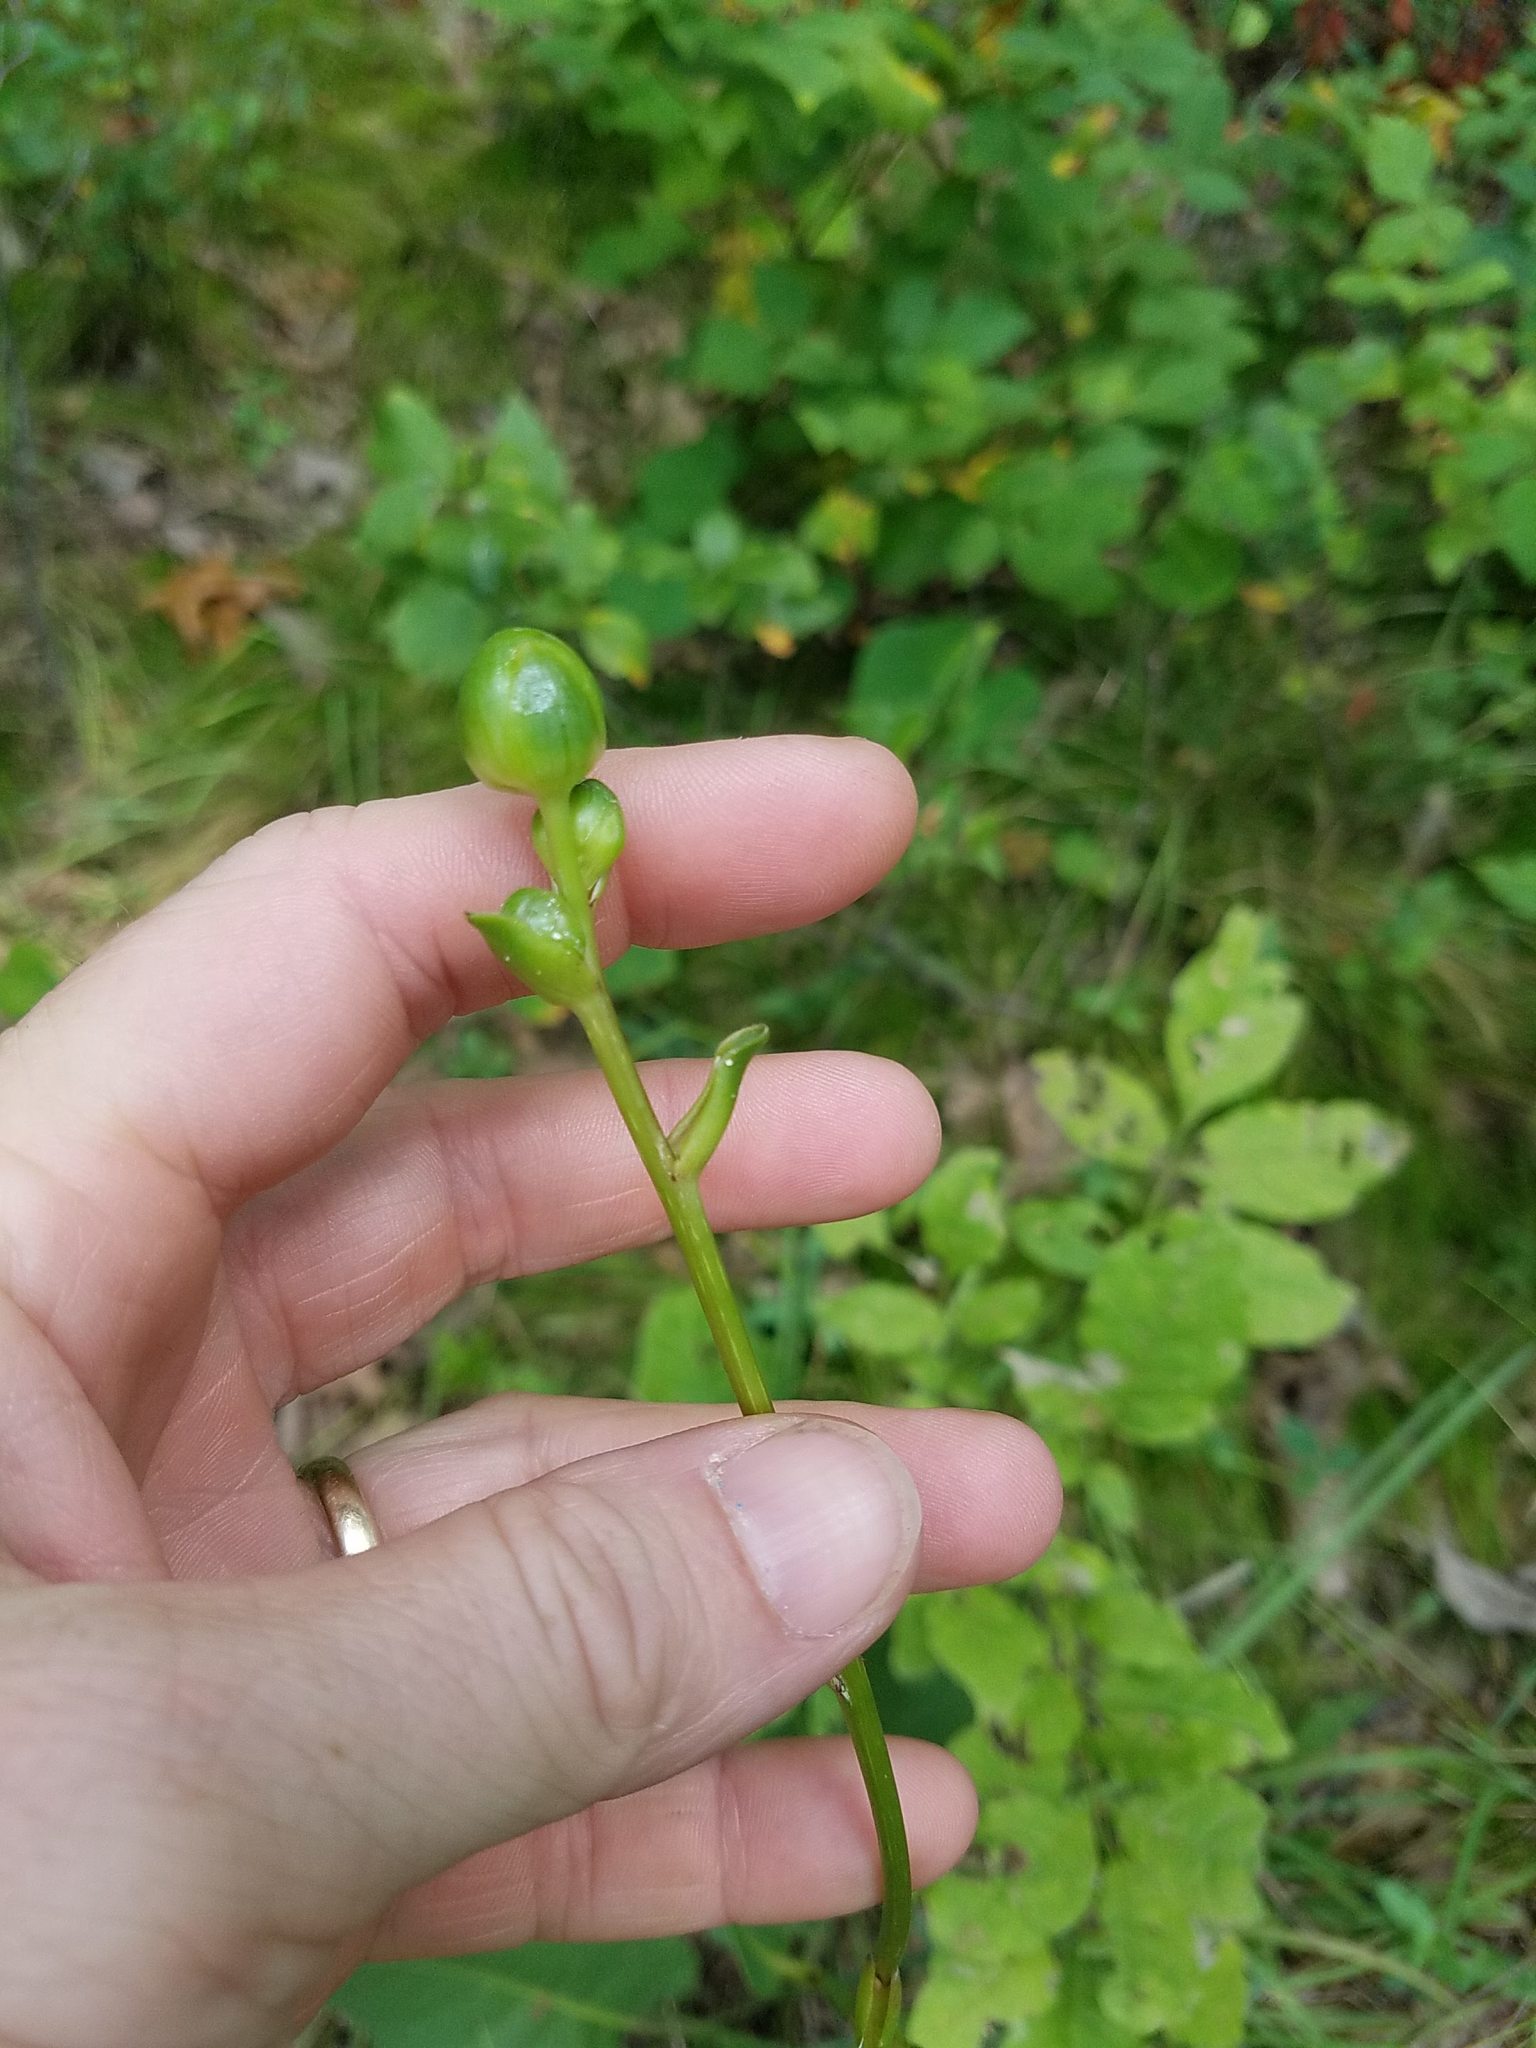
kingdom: Plantae
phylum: Tracheophyta
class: Magnoliopsida
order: Asterales
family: Asteraceae
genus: Silphium
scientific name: Silphium terebinthinaceum
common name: Basal-leaf rosinweed
